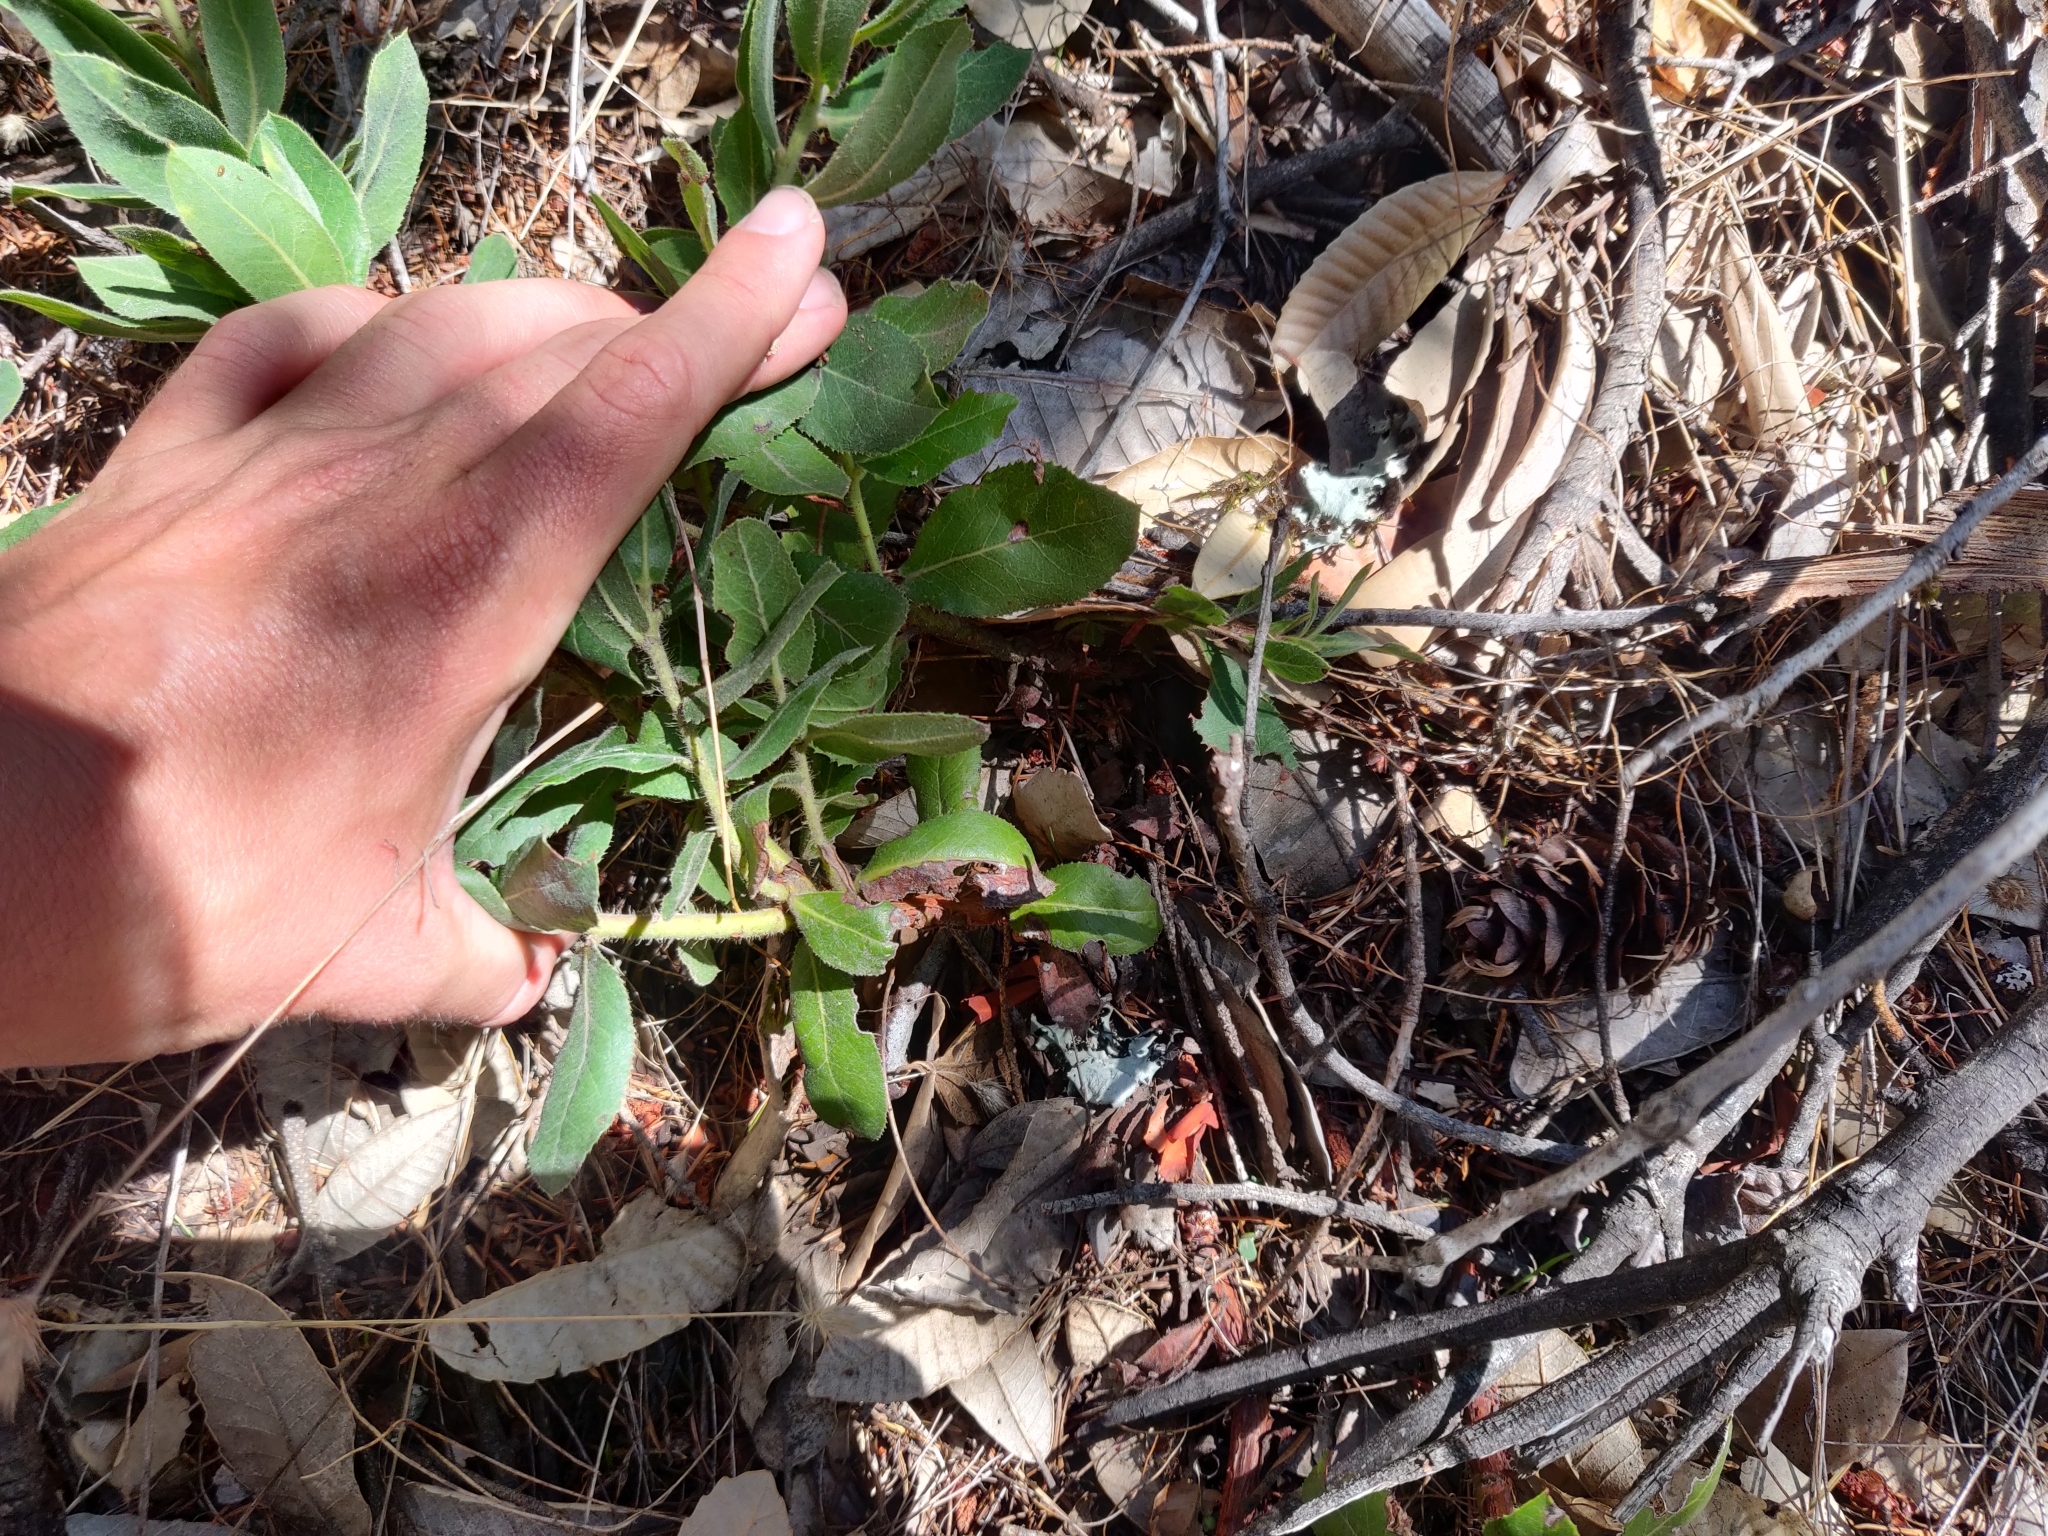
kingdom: Plantae
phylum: Tracheophyta
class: Magnoliopsida
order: Ericales
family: Ericaceae
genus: Arctostaphylos
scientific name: Arctostaphylos regismontana
